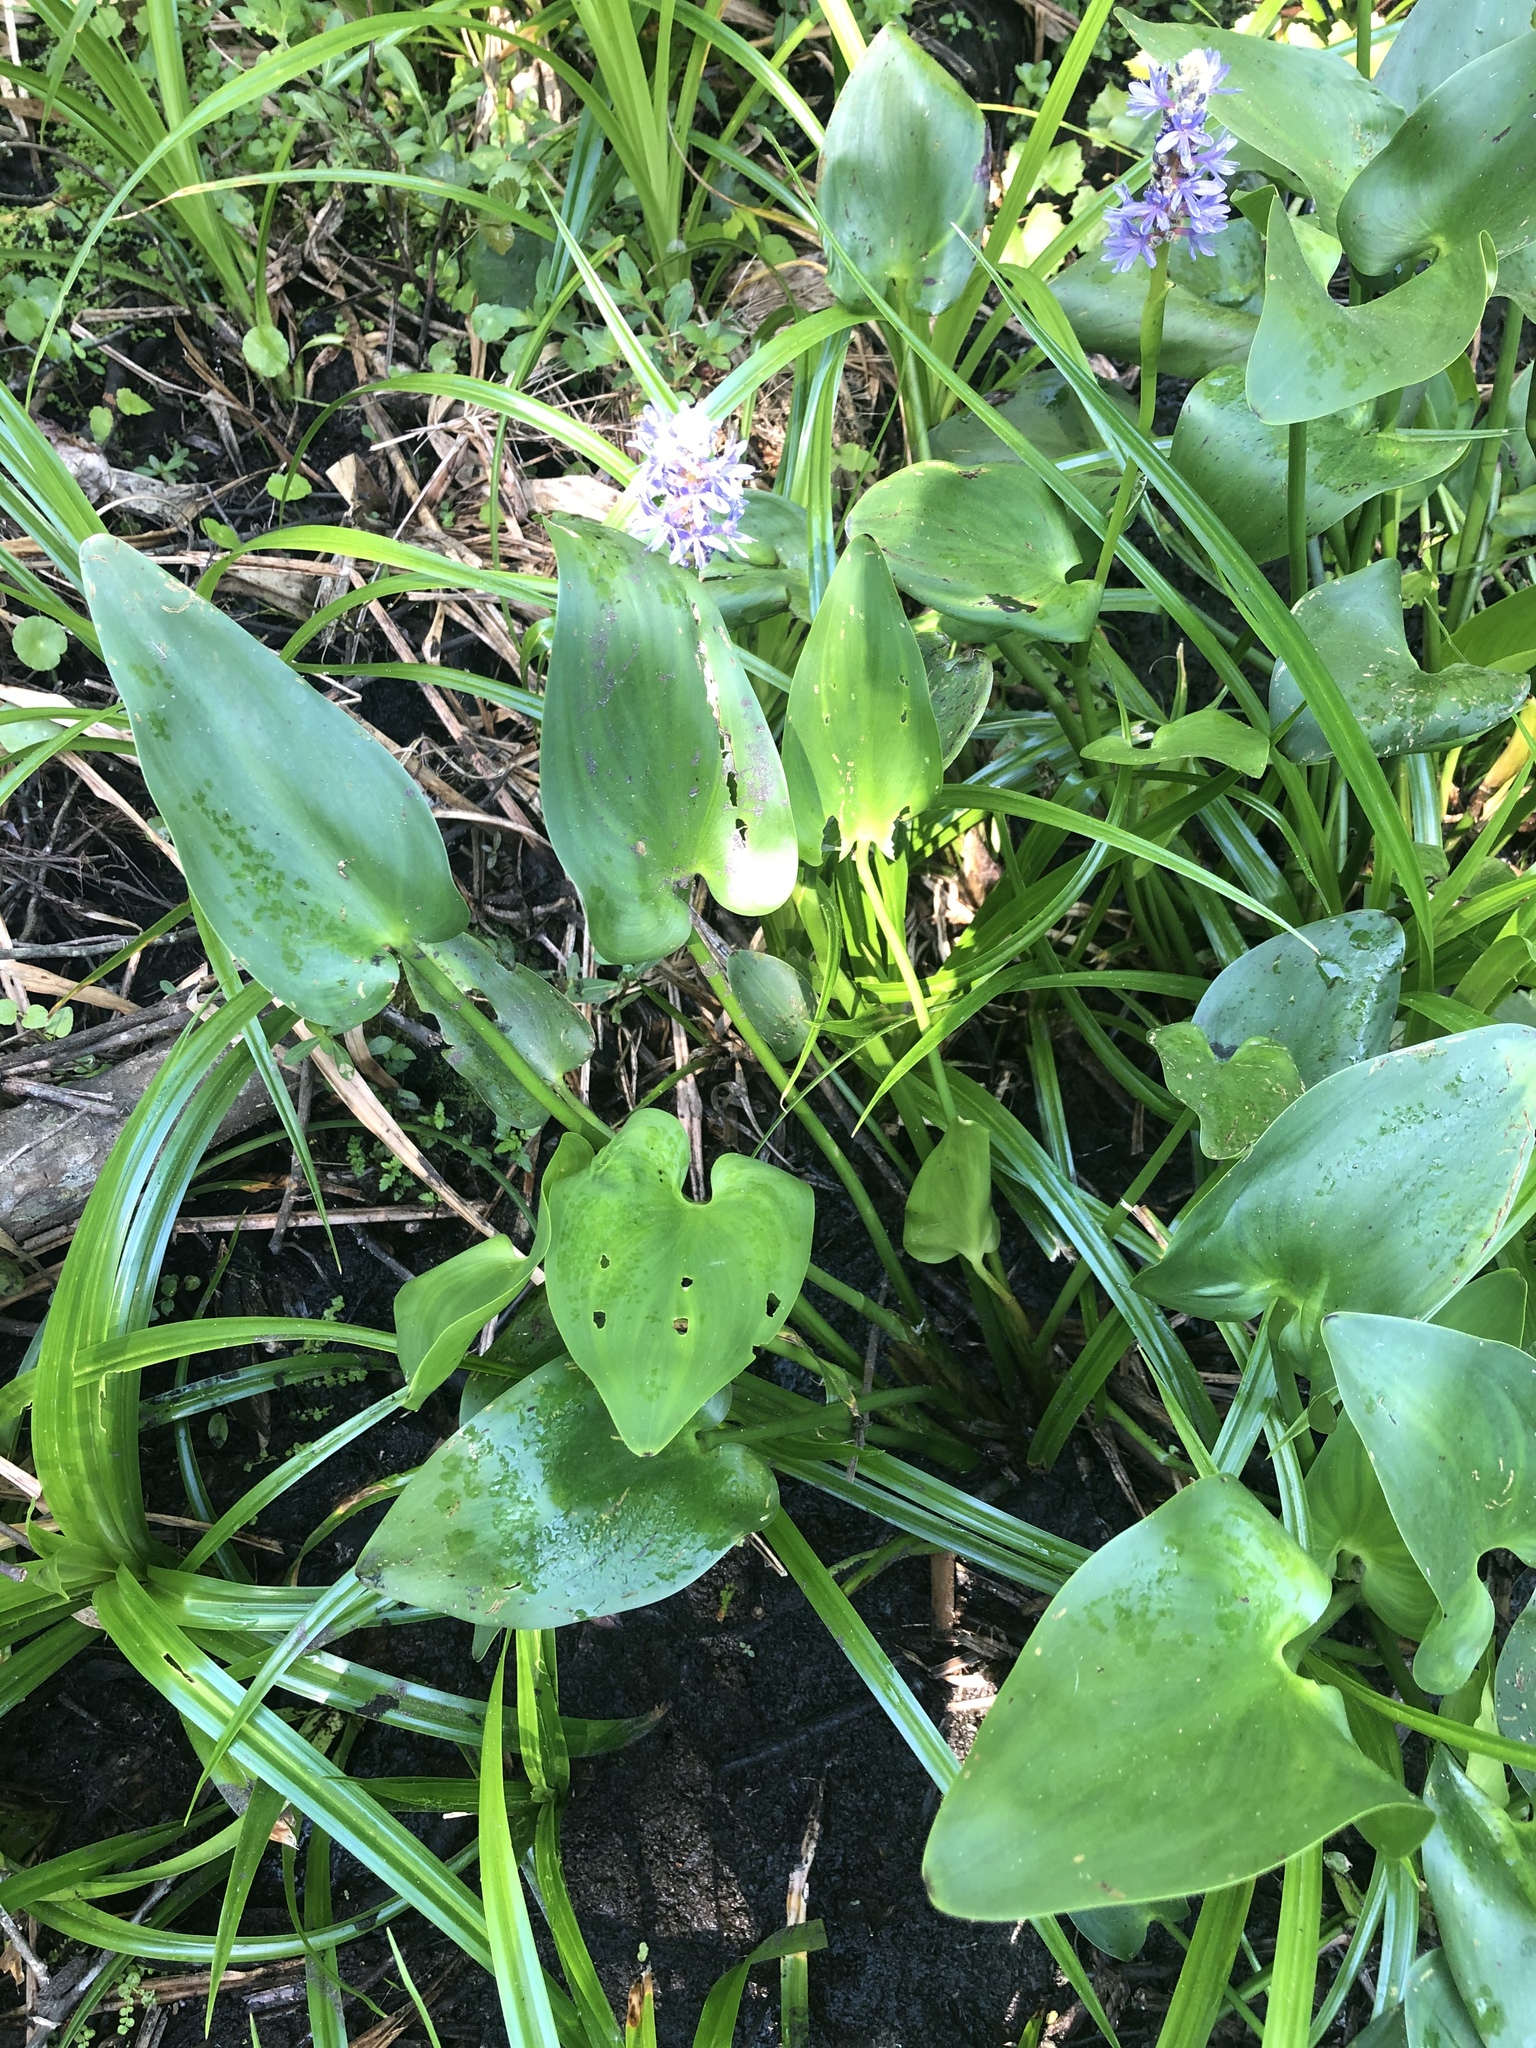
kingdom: Plantae
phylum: Tracheophyta
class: Liliopsida
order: Commelinales
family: Pontederiaceae
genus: Pontederia
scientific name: Pontederia cordata
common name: Pickerelweed
